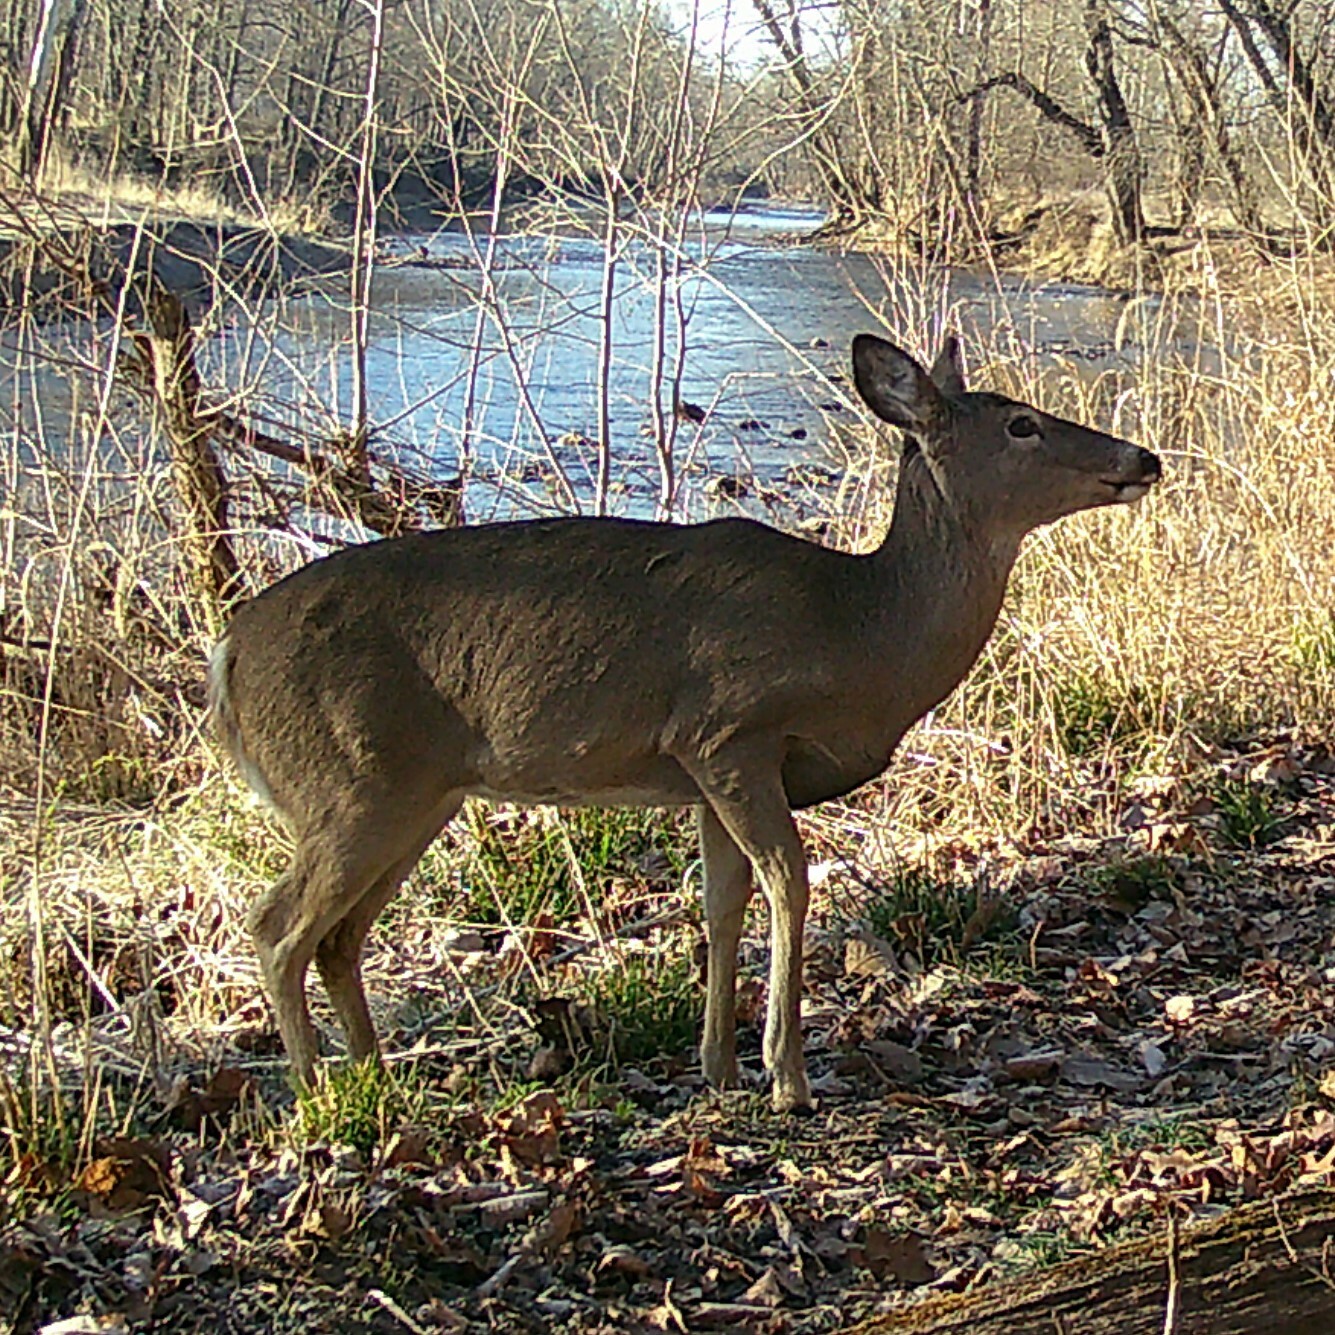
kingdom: Animalia
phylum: Chordata
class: Mammalia
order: Artiodactyla
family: Cervidae
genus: Odocoileus
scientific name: Odocoileus virginianus
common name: White-tailed deer
